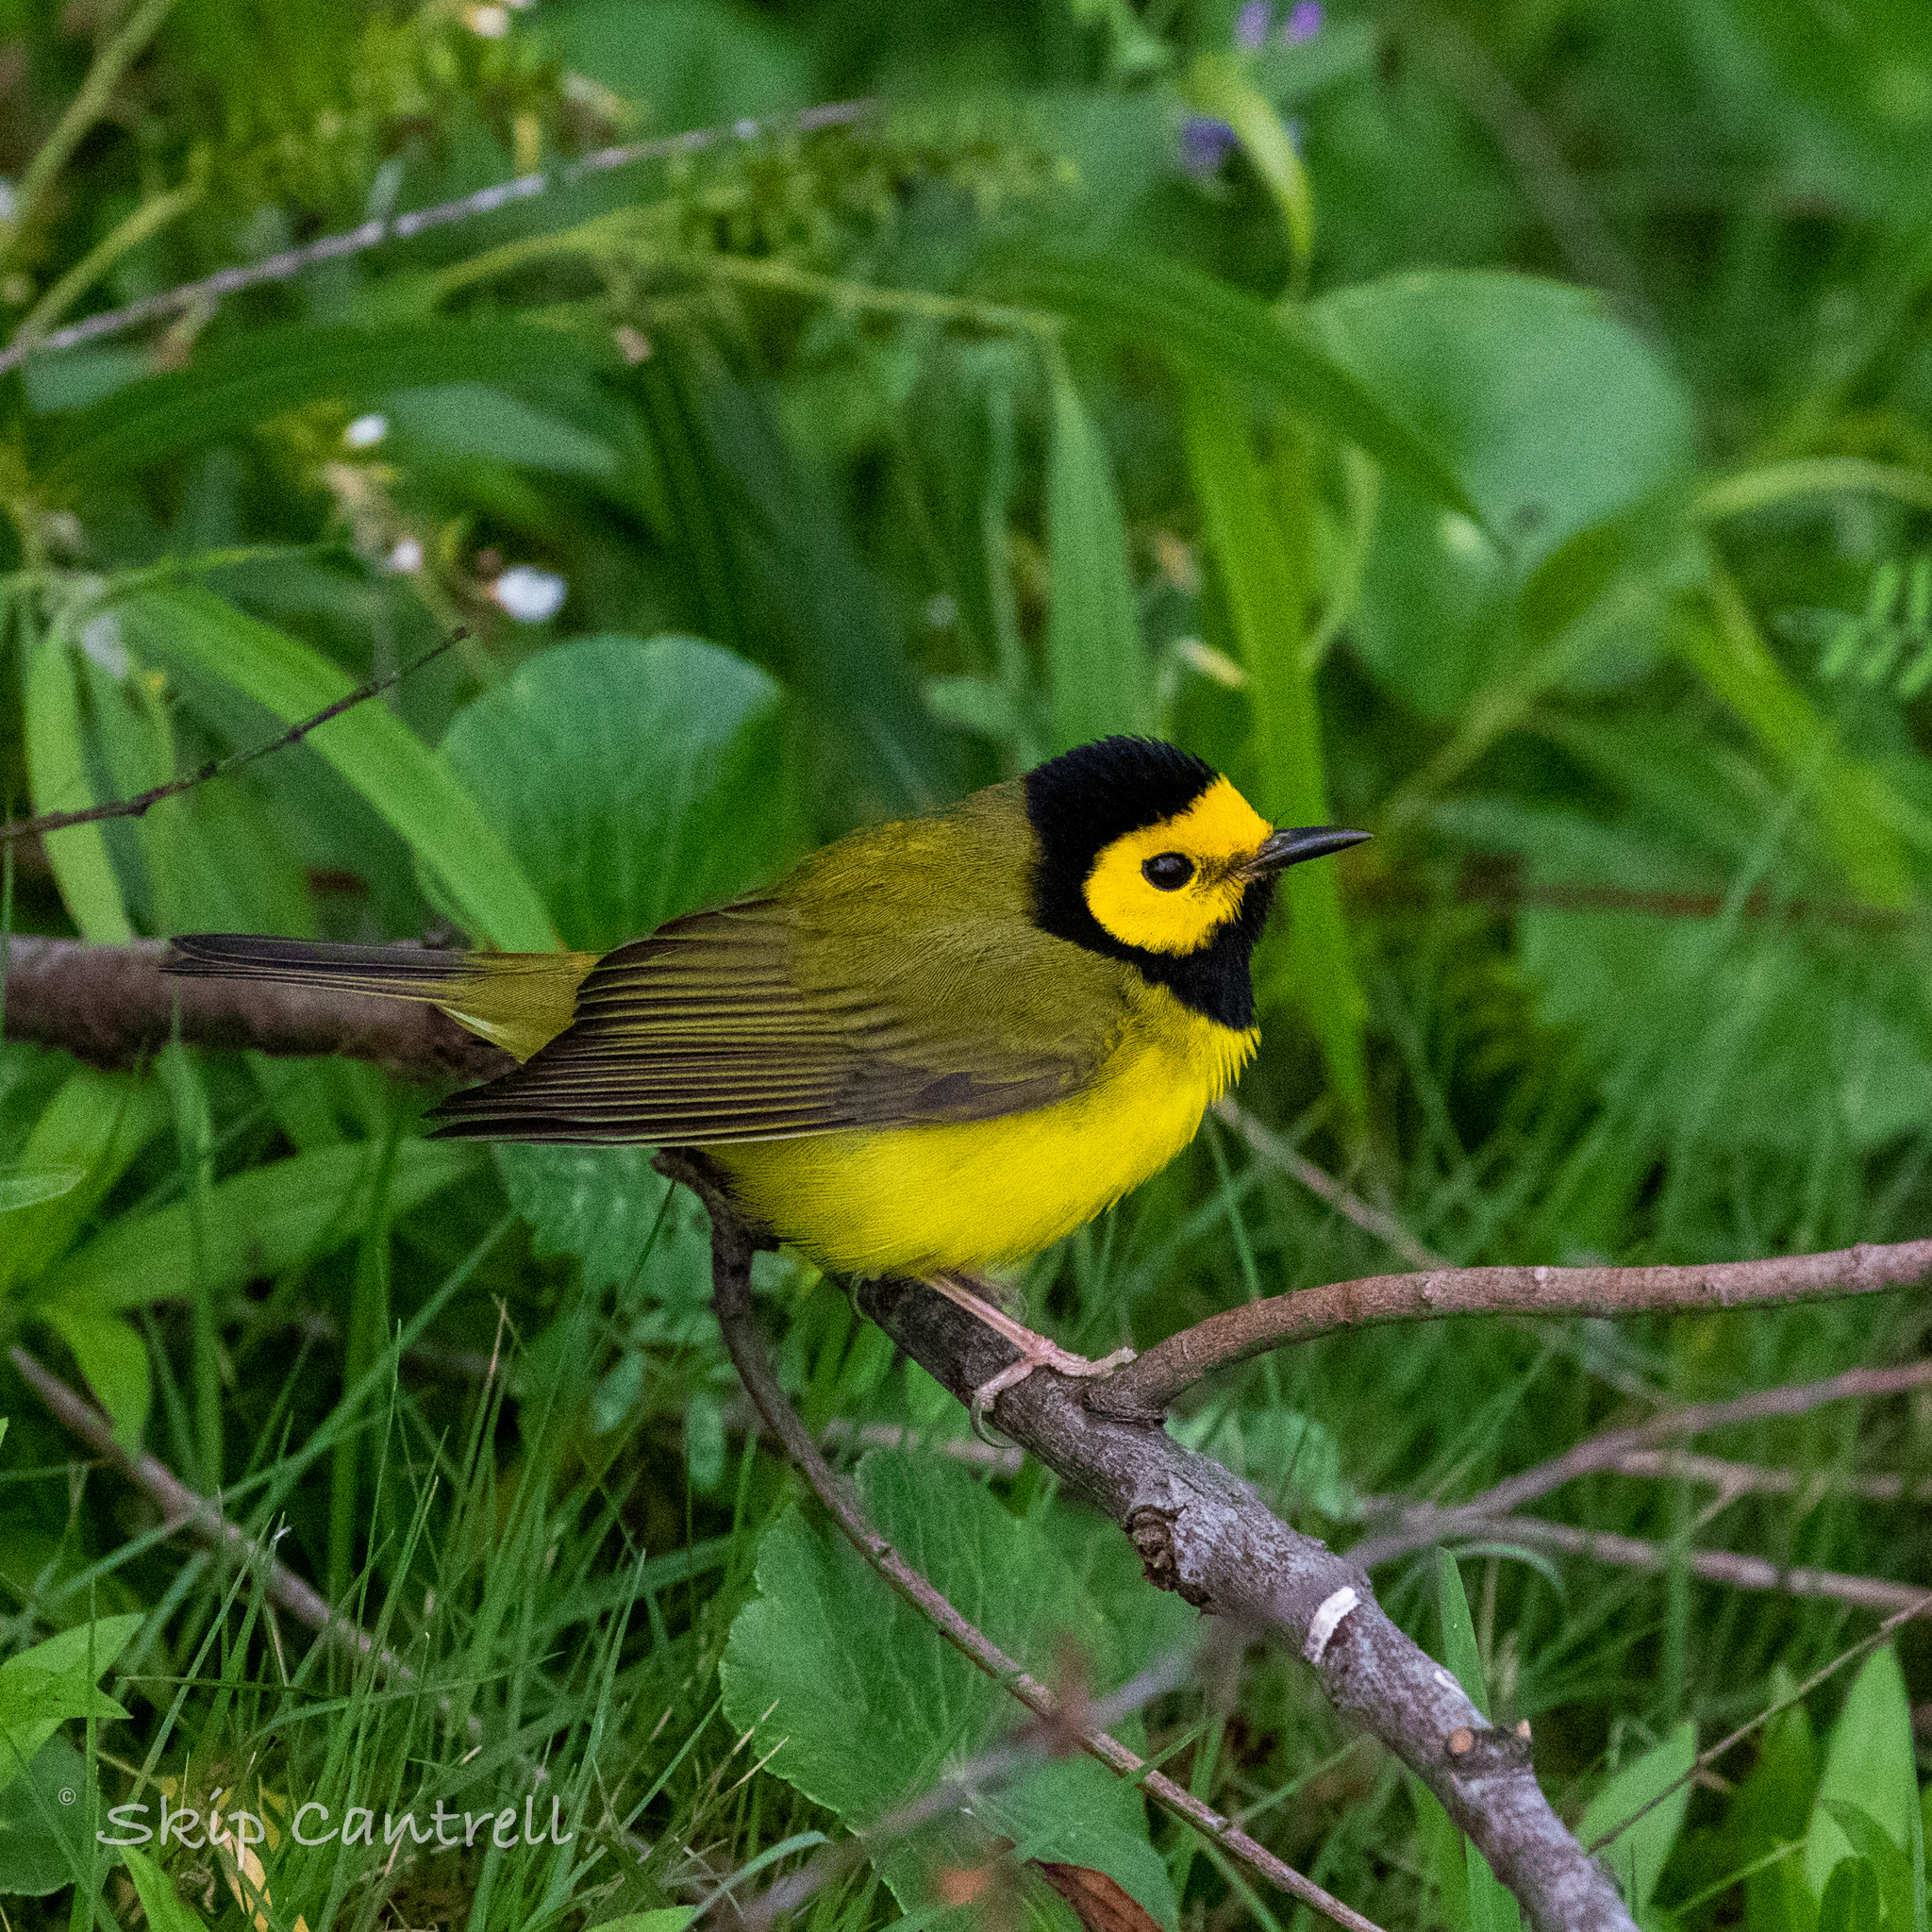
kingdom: Animalia
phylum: Chordata
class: Aves
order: Passeriformes
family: Parulidae
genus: Setophaga
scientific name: Setophaga citrina
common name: Hooded warbler
